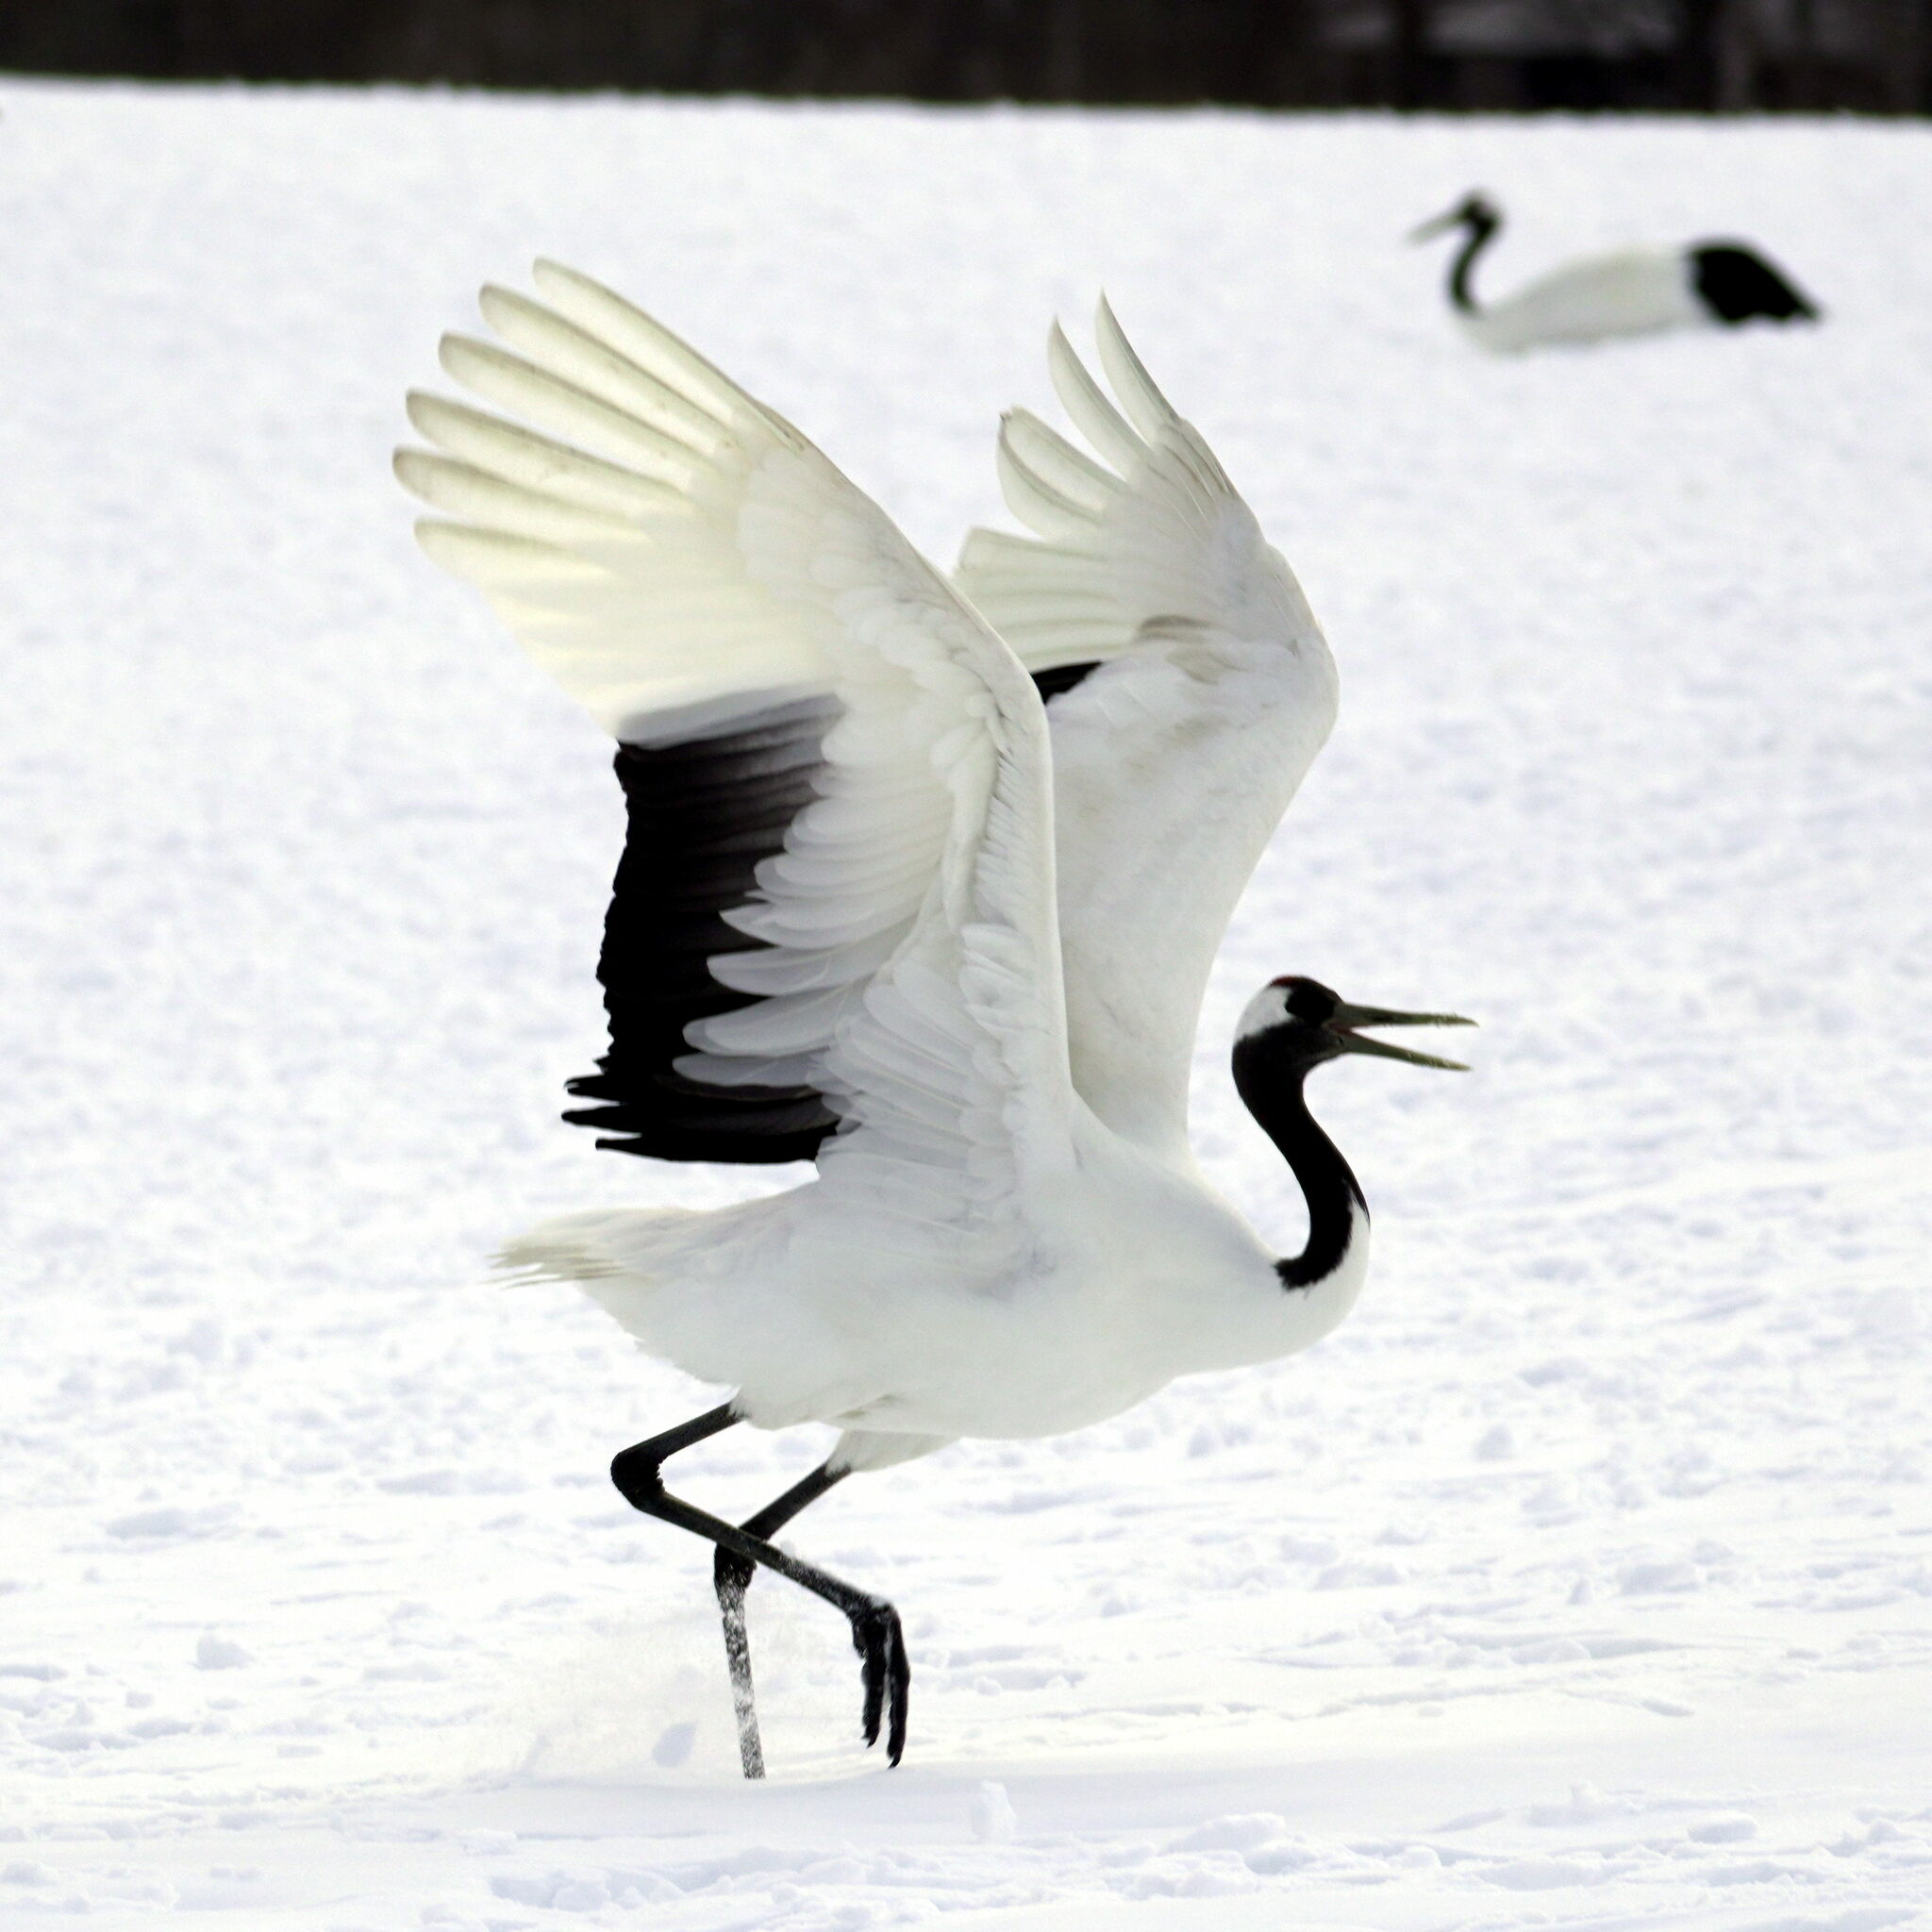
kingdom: Animalia
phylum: Chordata
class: Aves
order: Gruiformes
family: Gruidae
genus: Grus
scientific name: Grus japonensis
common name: Red-crowned crane
